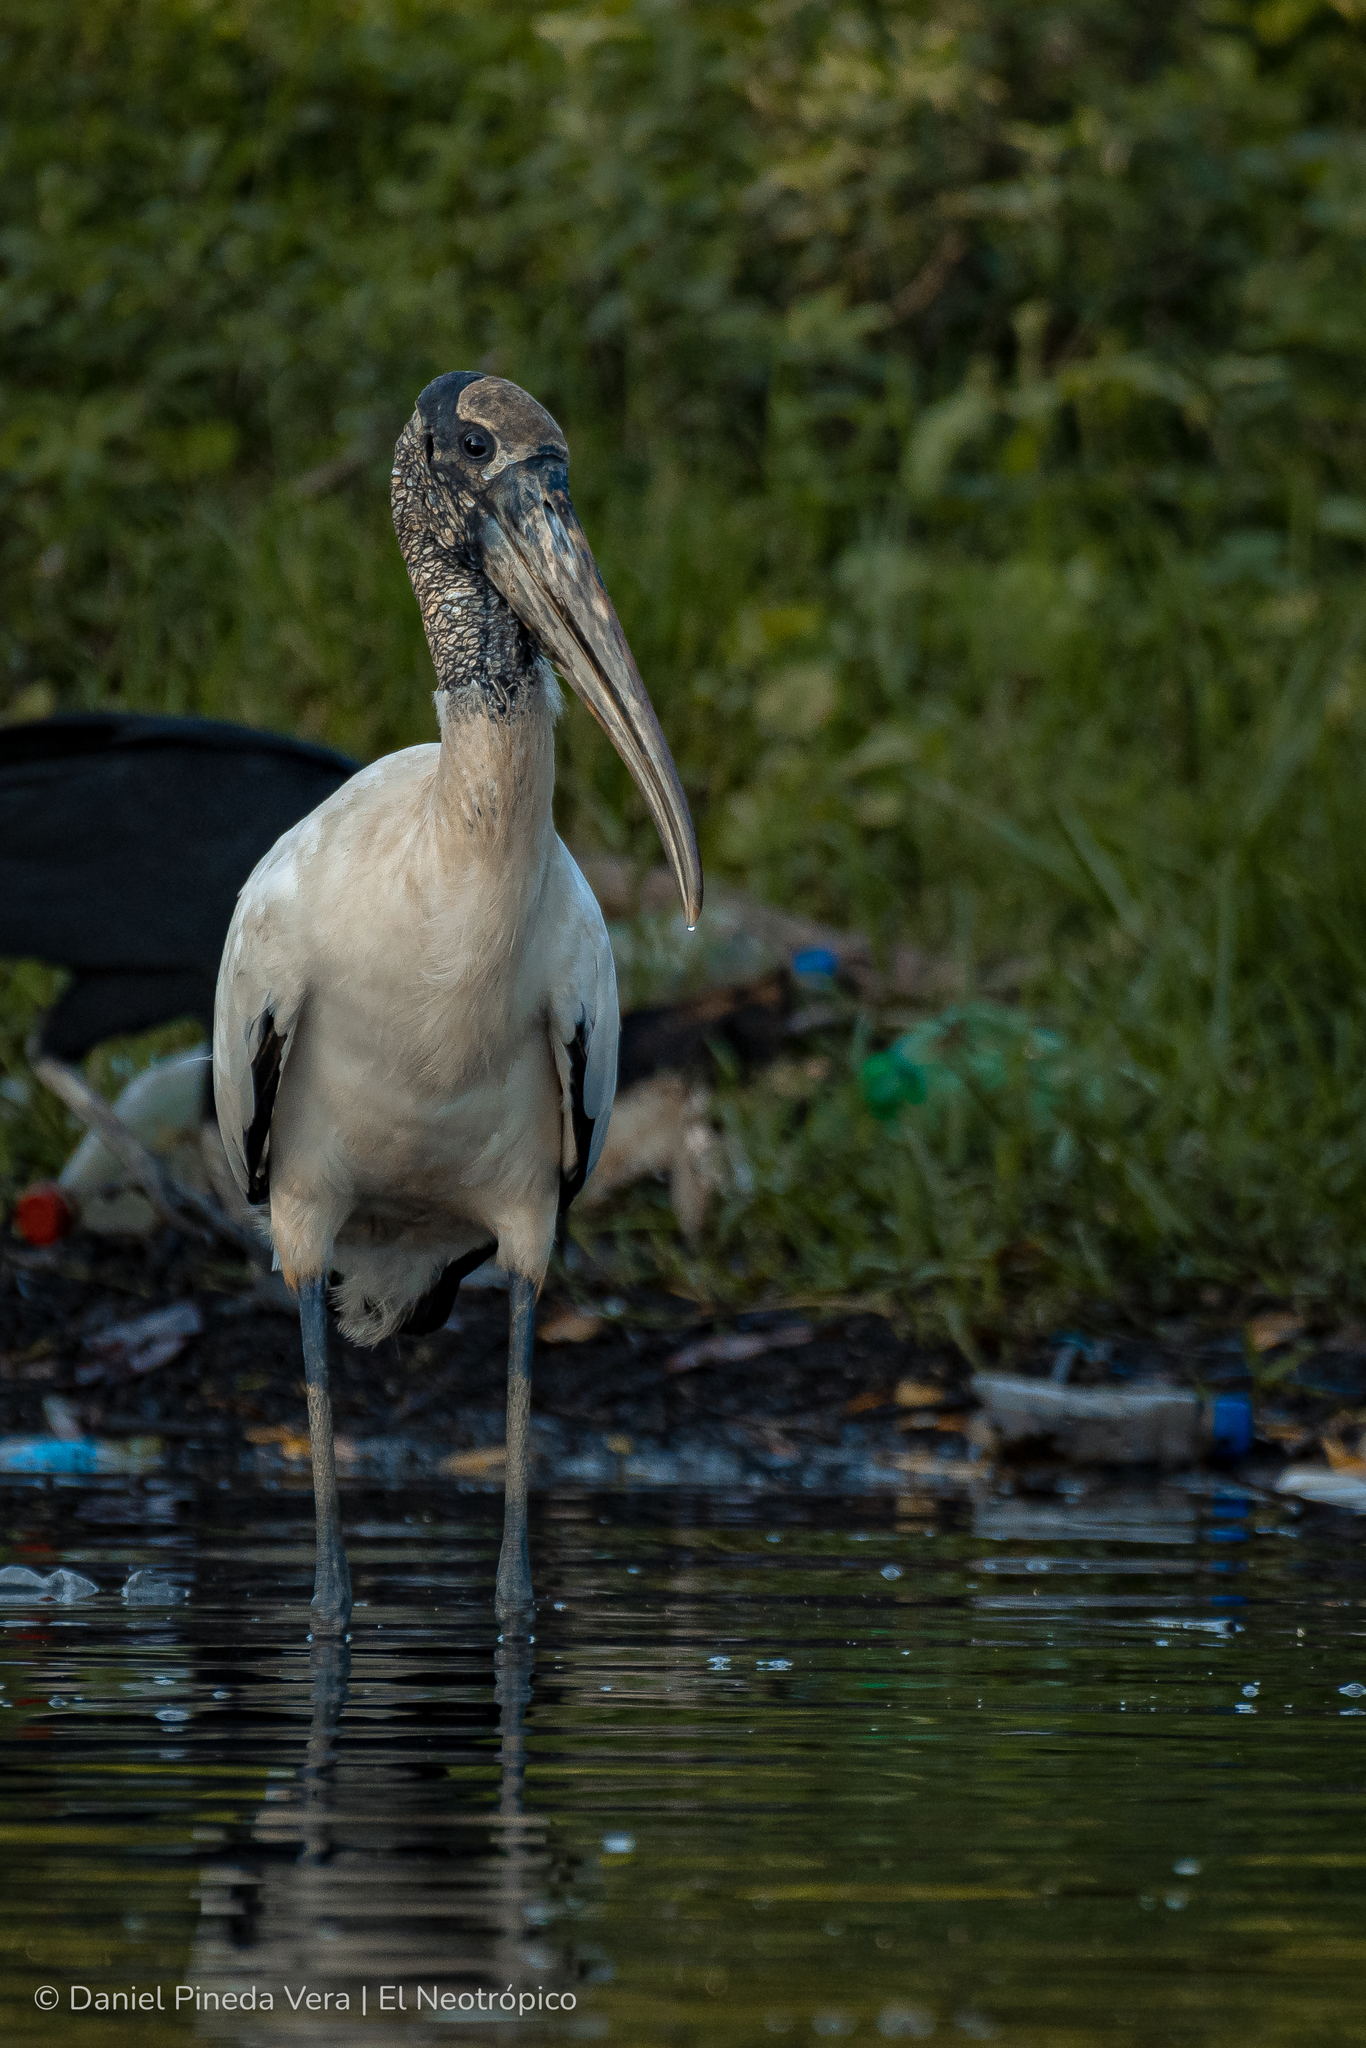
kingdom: Animalia
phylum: Chordata
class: Aves
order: Ciconiiformes
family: Ciconiidae
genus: Mycteria
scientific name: Mycteria americana
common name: Wood stork
